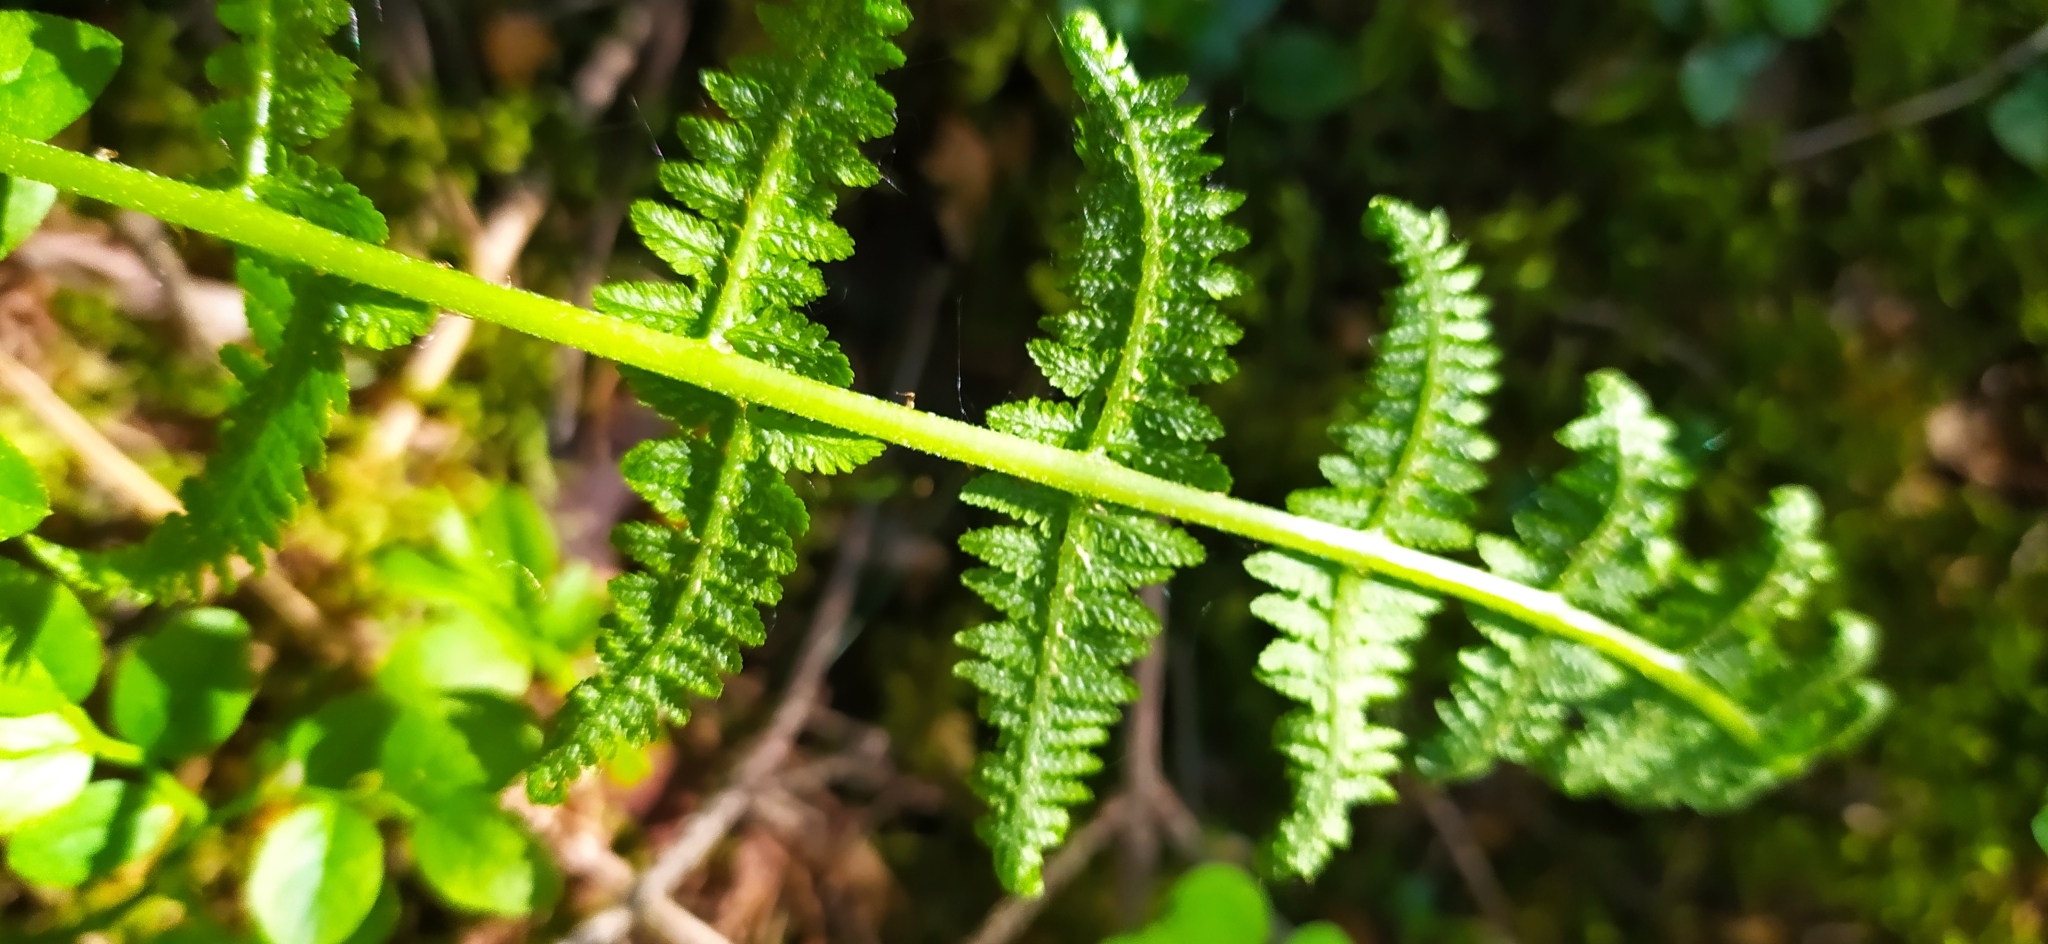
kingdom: Plantae
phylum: Tracheophyta
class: Polypodiopsida
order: Polypodiales
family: Athyriaceae
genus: Athyrium
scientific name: Athyrium filix-femina
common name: Lady fern
